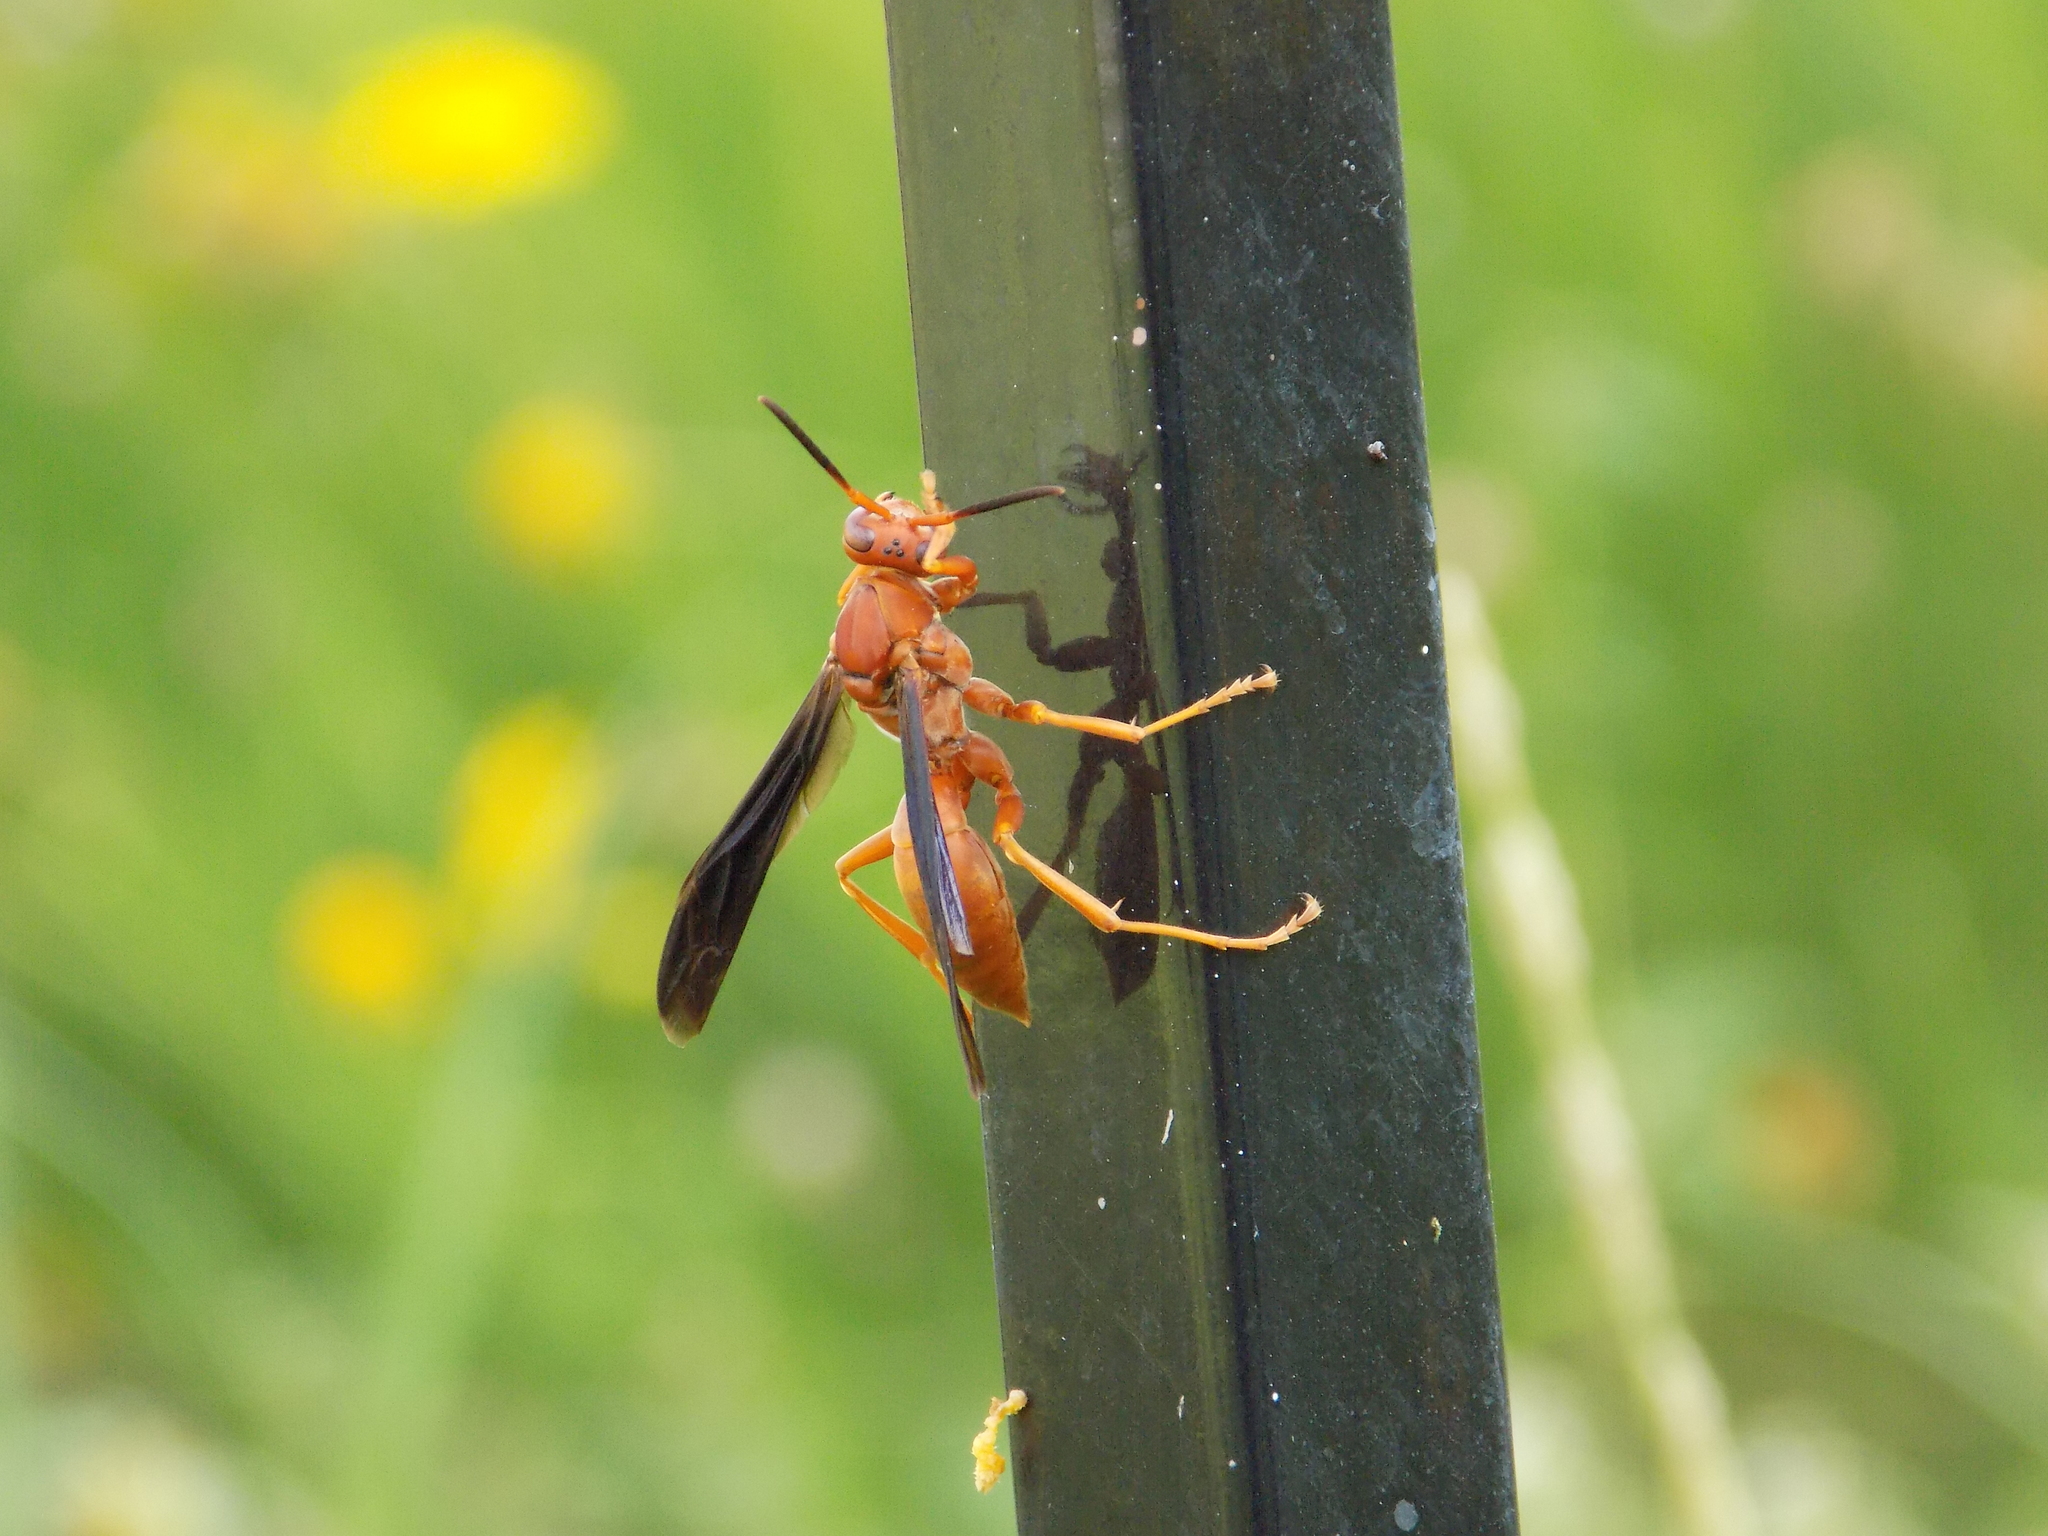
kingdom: Animalia
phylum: Arthropoda
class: Insecta
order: Hymenoptera
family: Eumenidae
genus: Polistes
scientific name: Polistes carolina
